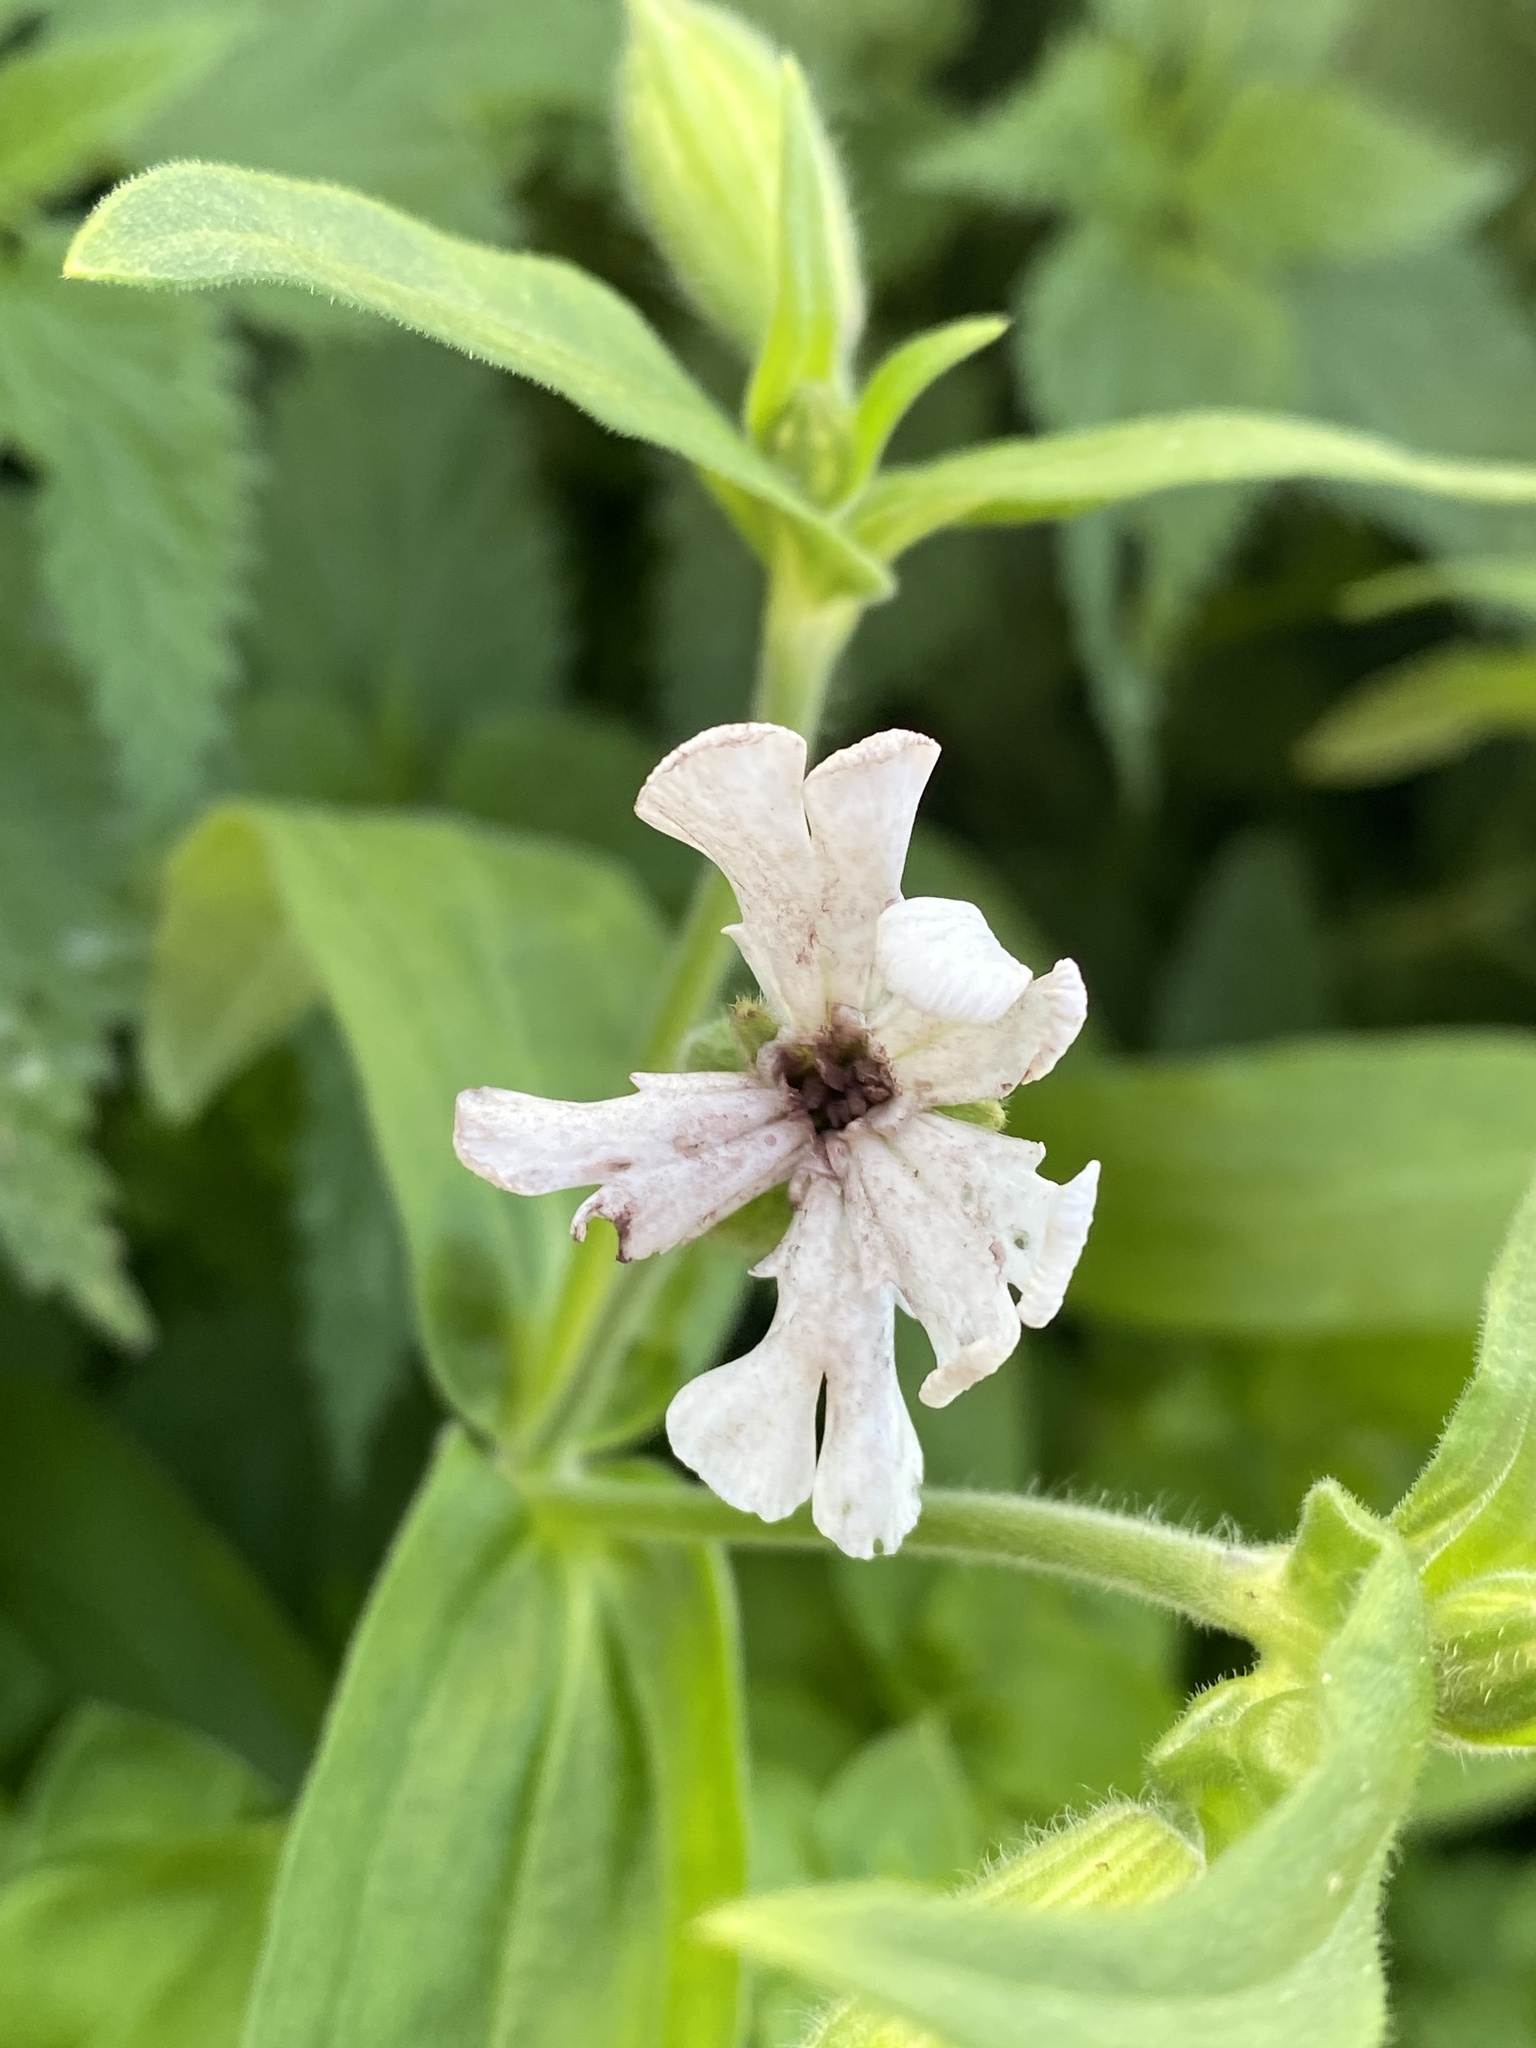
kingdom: Fungi
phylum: Basidiomycota
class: Microbotryomycetes
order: Microbotryales
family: Microbotryaceae
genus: Microbotryum
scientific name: Microbotryum lychnidis-dioicae
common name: Campion anther smut
